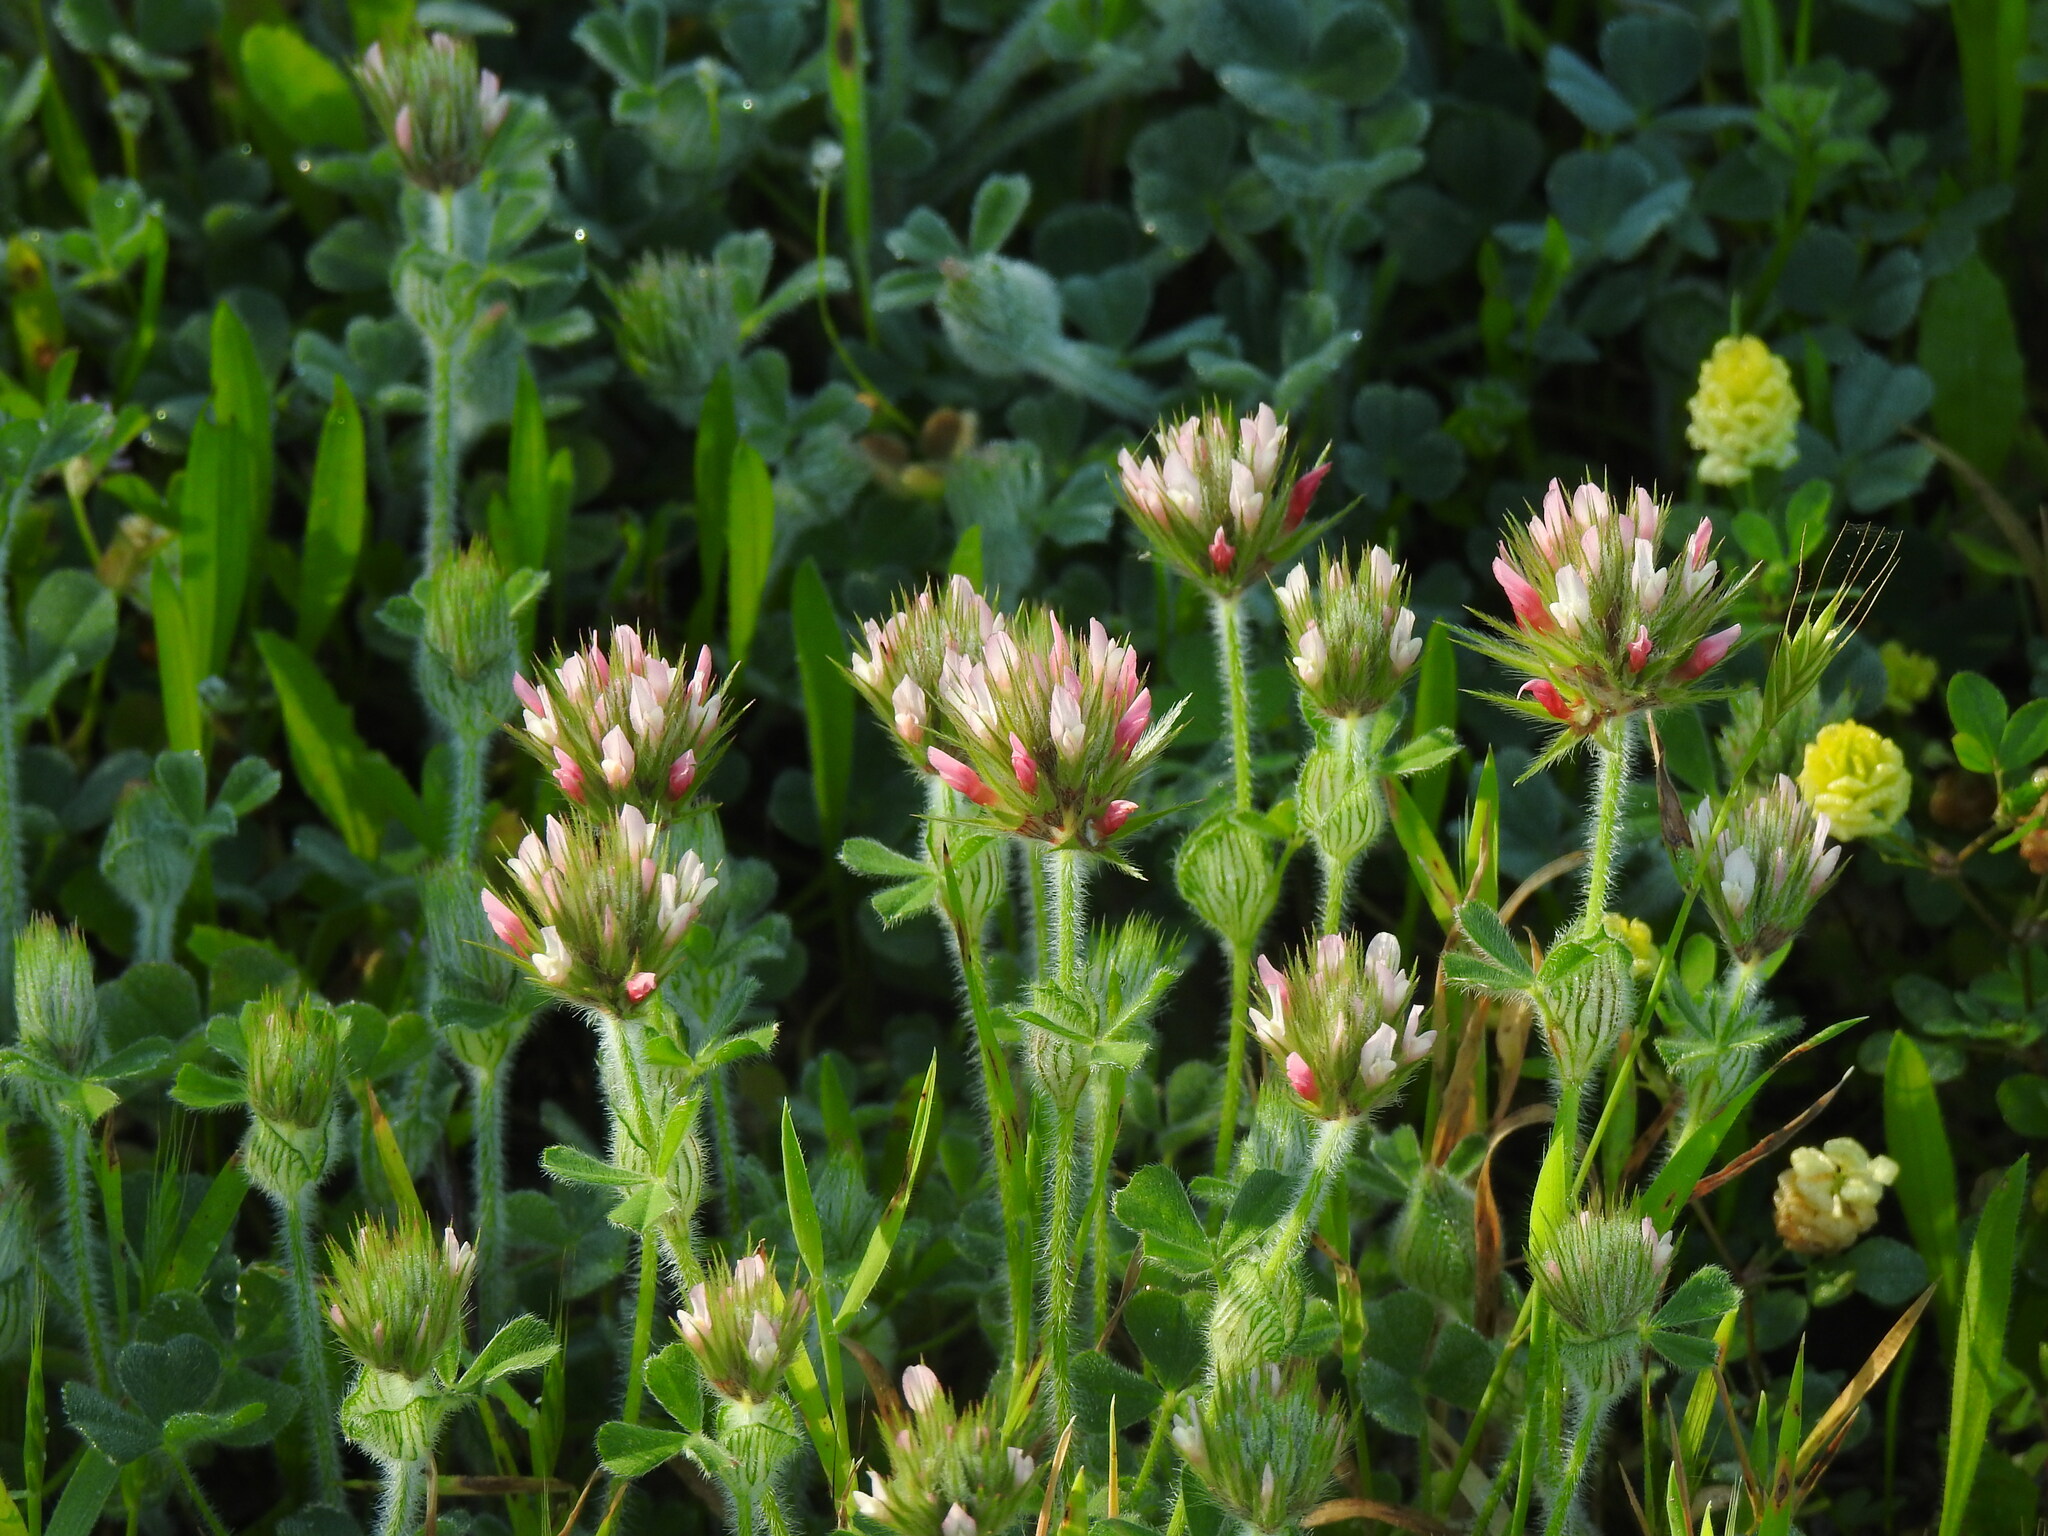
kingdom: Plantae
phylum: Tracheophyta
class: Magnoliopsida
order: Fabales
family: Fabaceae
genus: Trifolium
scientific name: Trifolium stellatum
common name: Starry clover
